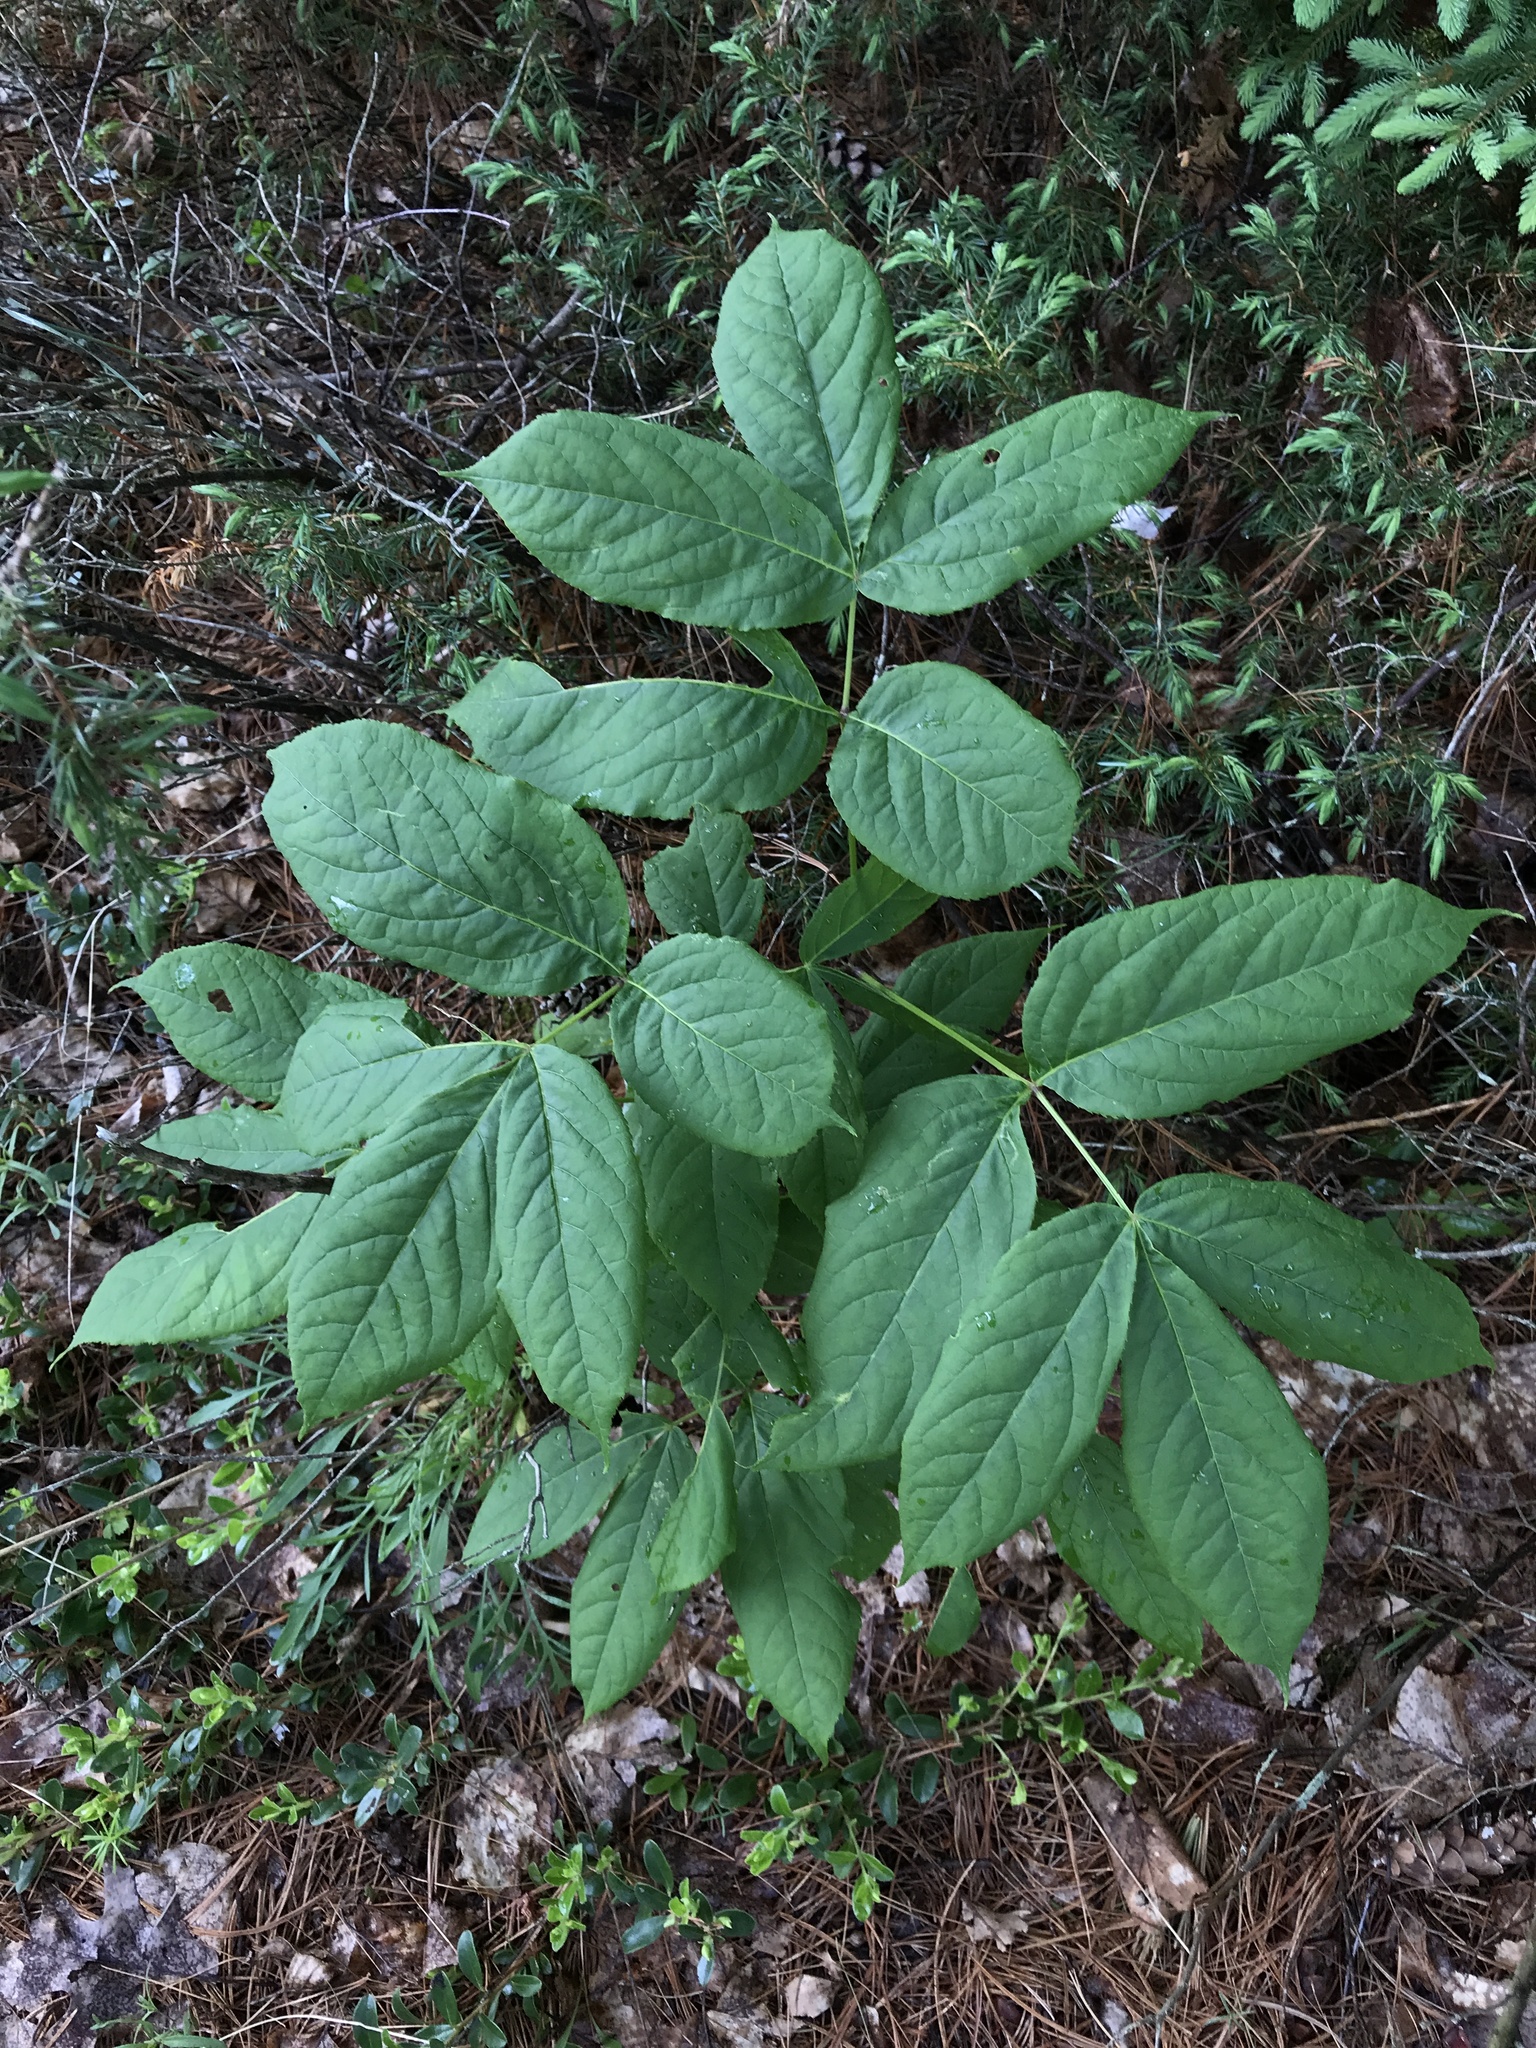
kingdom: Plantae
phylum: Tracheophyta
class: Magnoliopsida
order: Apiales
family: Araliaceae
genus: Aralia
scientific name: Aralia nudicaulis
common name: Wild sarsaparilla
